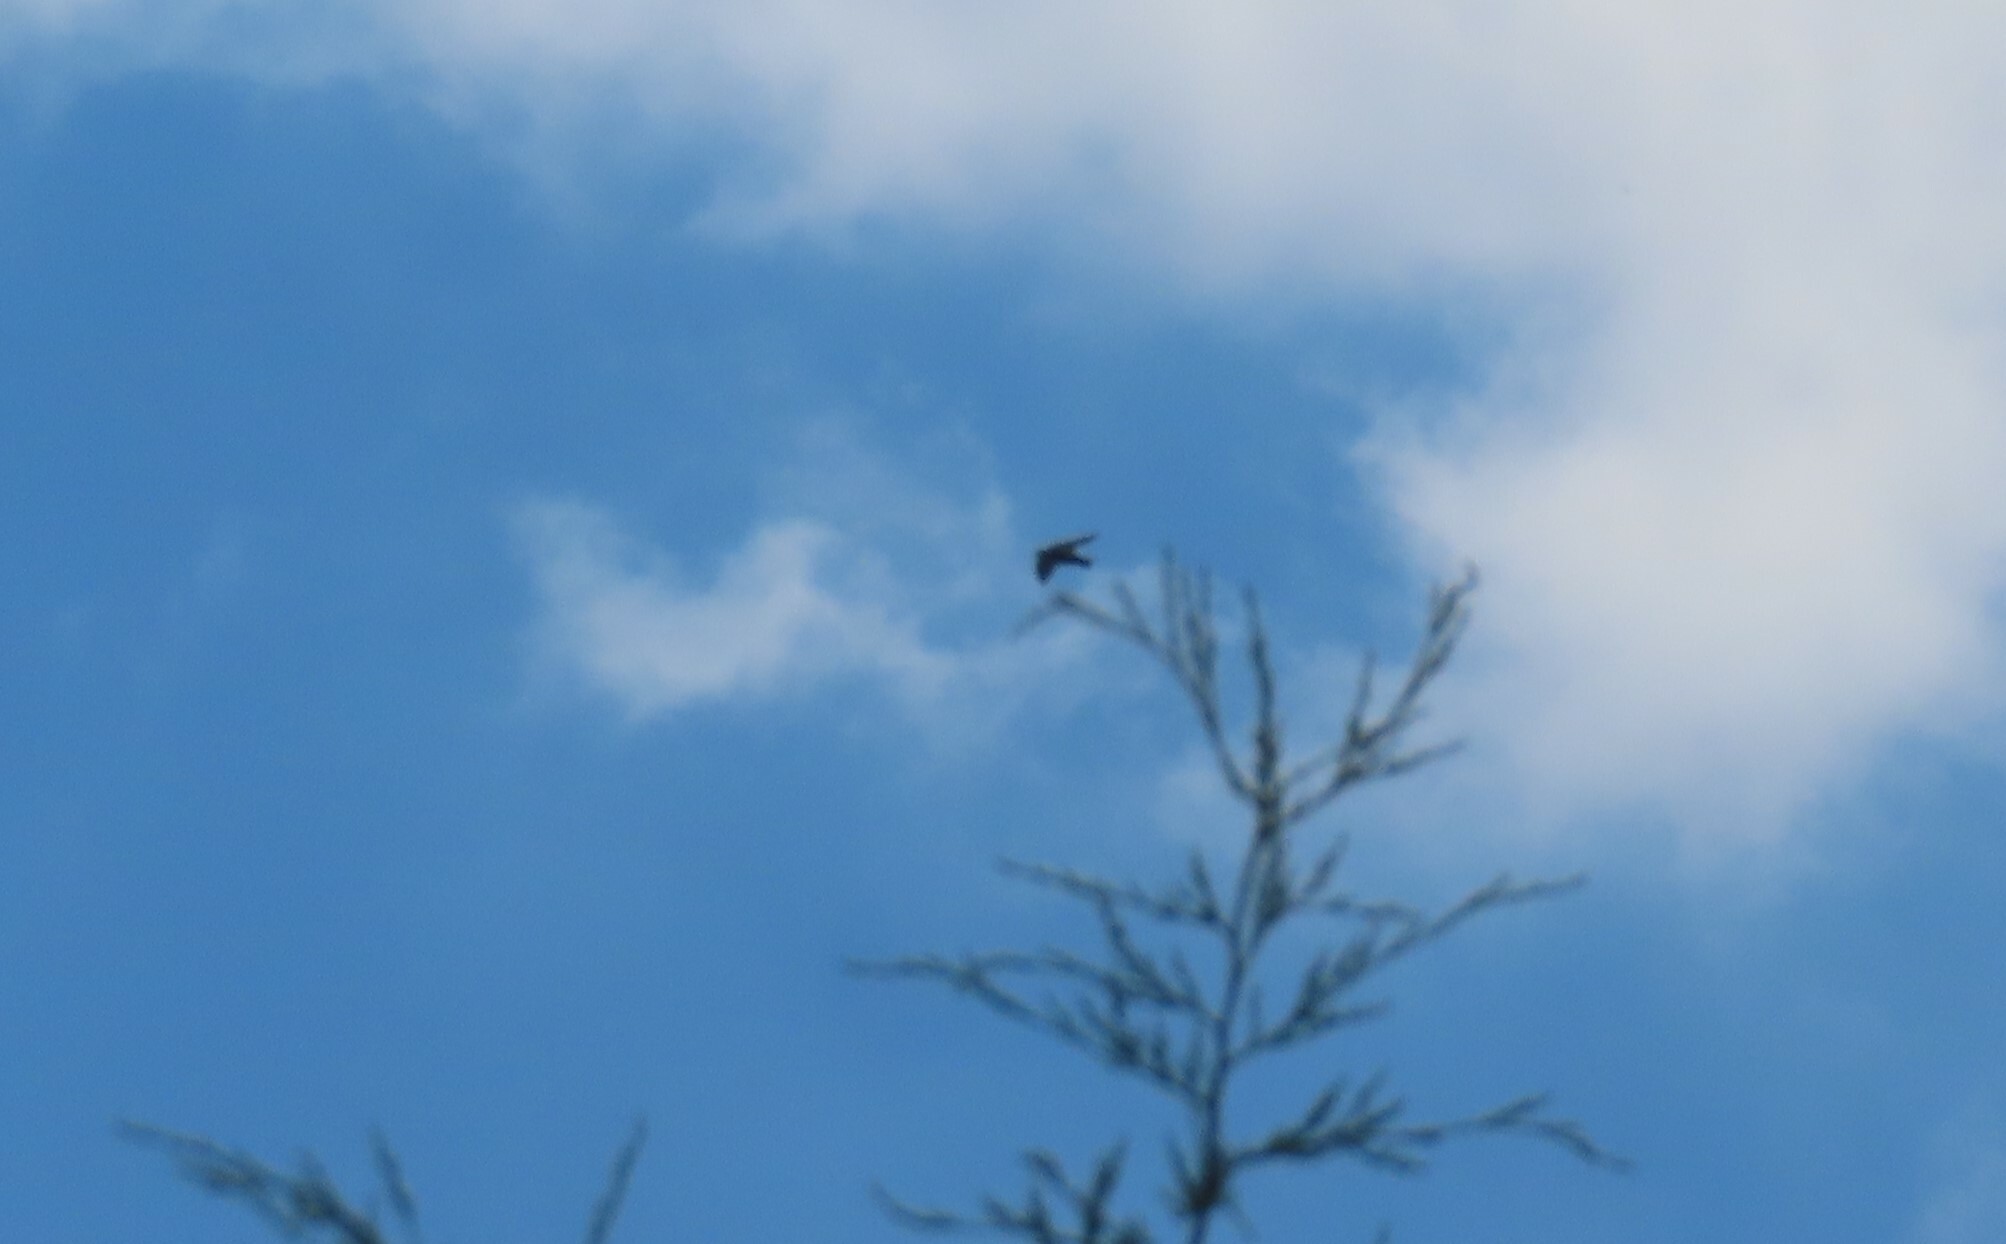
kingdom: Animalia
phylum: Chordata
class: Aves
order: Passeriformes
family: Hirundinidae
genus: Tachycineta
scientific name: Tachycineta bicolor
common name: Tree swallow
